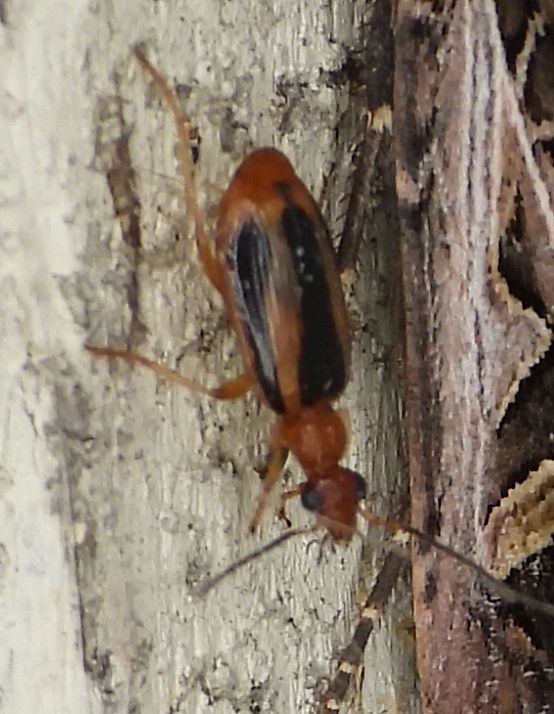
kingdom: Animalia
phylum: Arthropoda
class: Insecta
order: Coleoptera
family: Carabidae
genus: Lebia
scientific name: Lebia solea
